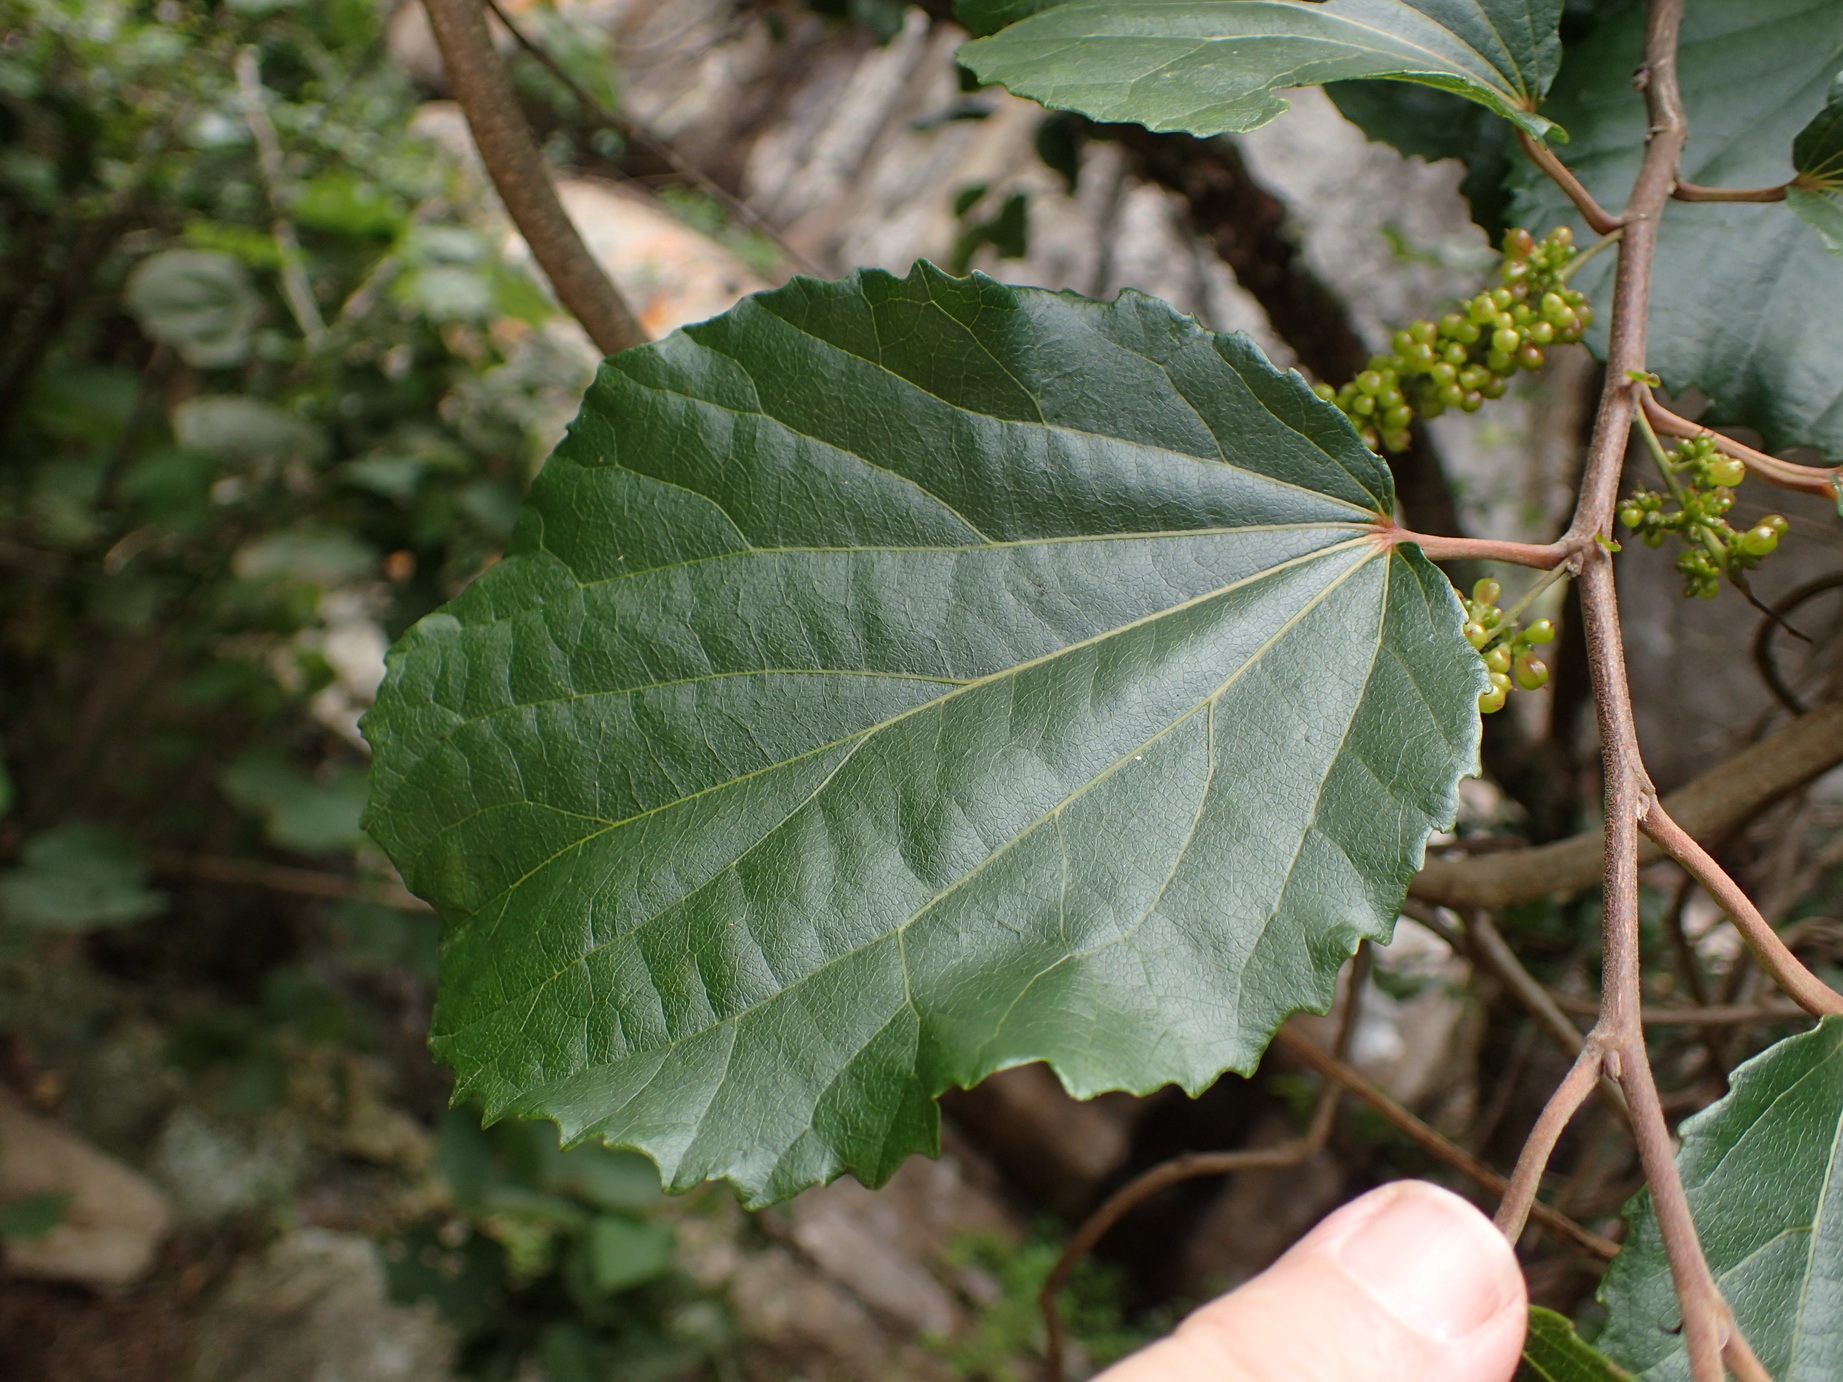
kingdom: Plantae
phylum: Tracheophyta
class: Magnoliopsida
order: Malpighiales
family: Salicaceae
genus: Trimeria
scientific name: Trimeria grandifolia
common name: Wild mulberry
